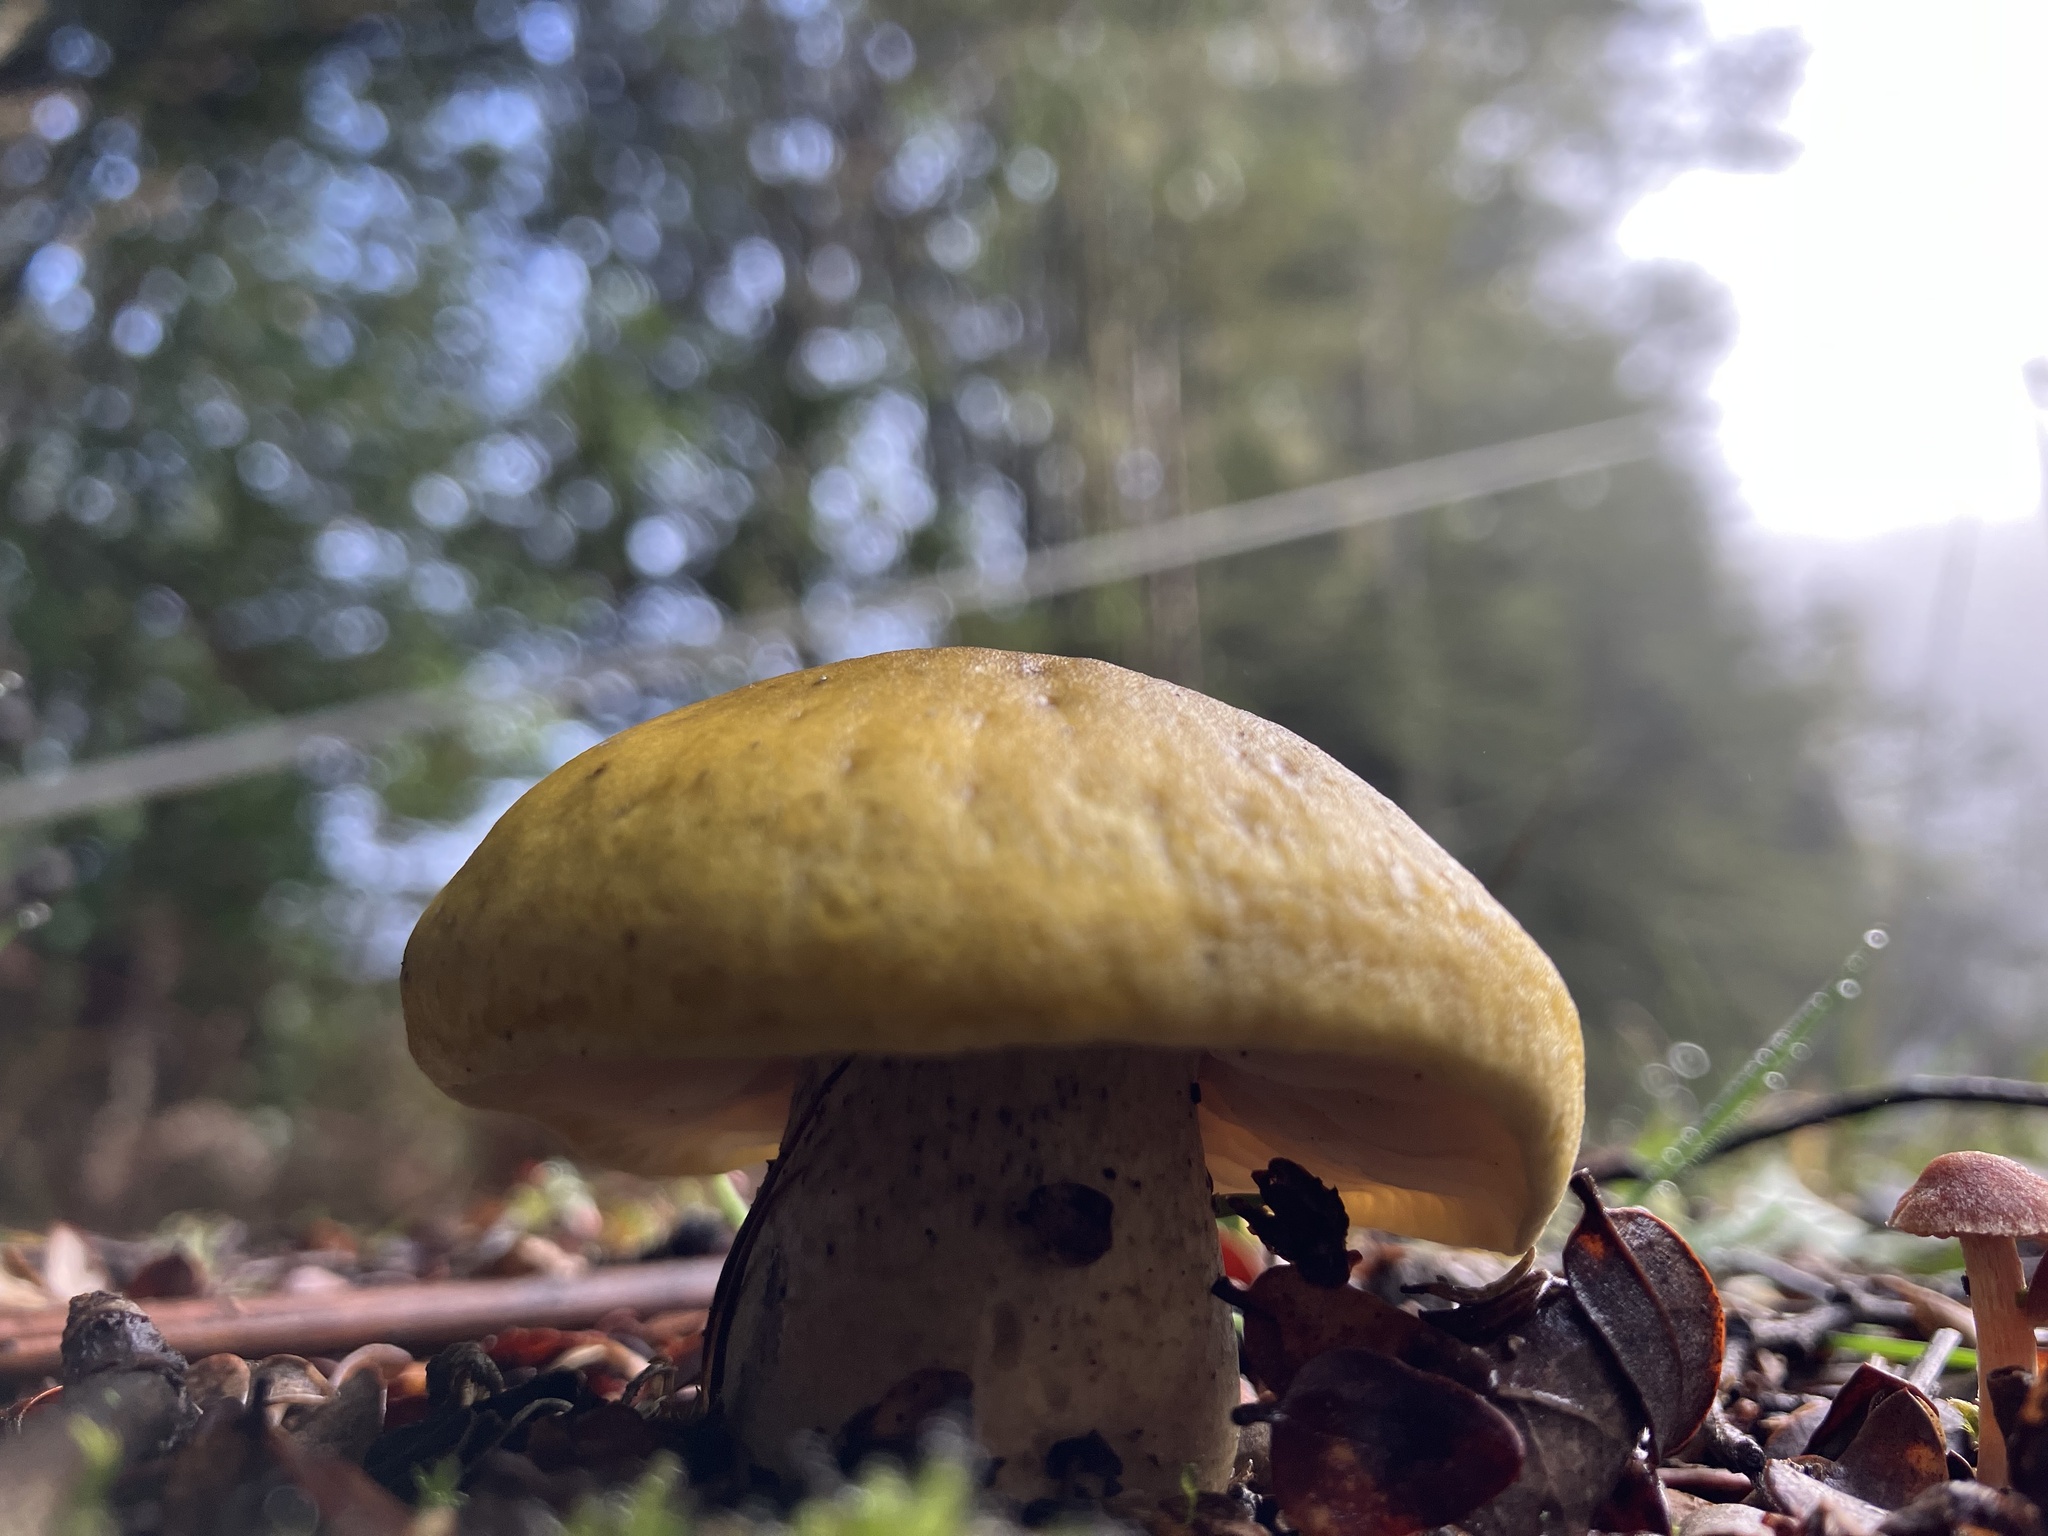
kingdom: Fungi
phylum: Basidiomycota
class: Agaricomycetes
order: Agaricales
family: Tricholomataceae
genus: Tricholoma
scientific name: Tricholoma viridiolivaceum
